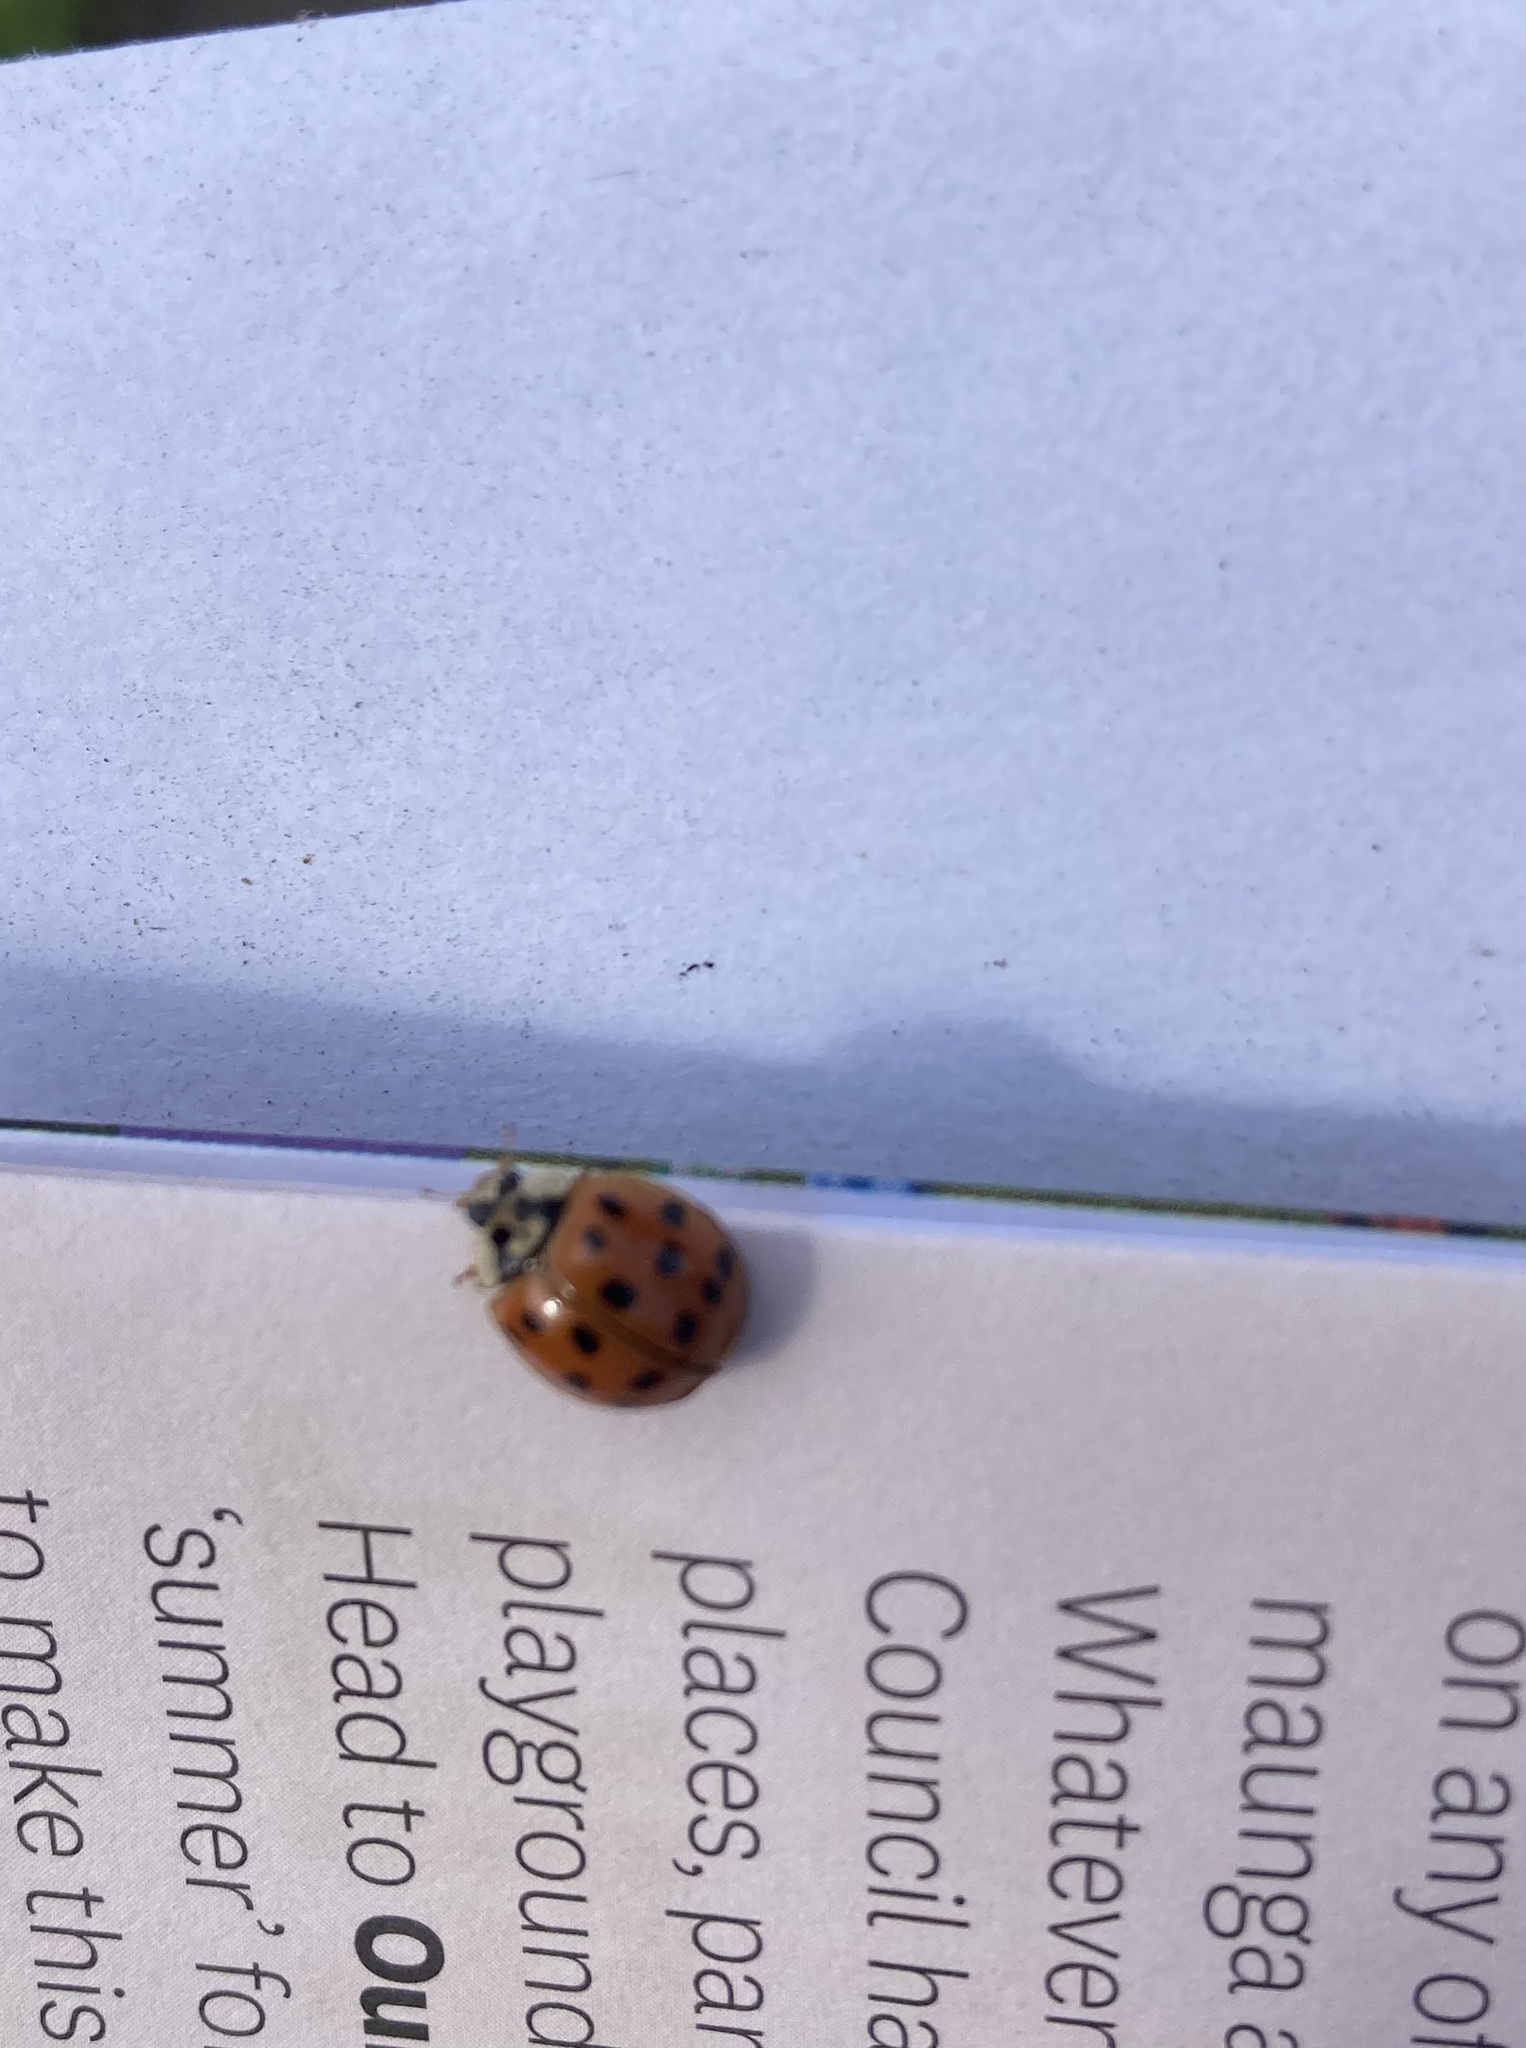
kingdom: Animalia
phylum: Arthropoda
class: Insecta
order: Coleoptera
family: Coccinellidae
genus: Harmonia
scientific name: Harmonia axyridis
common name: Harlequin ladybird
